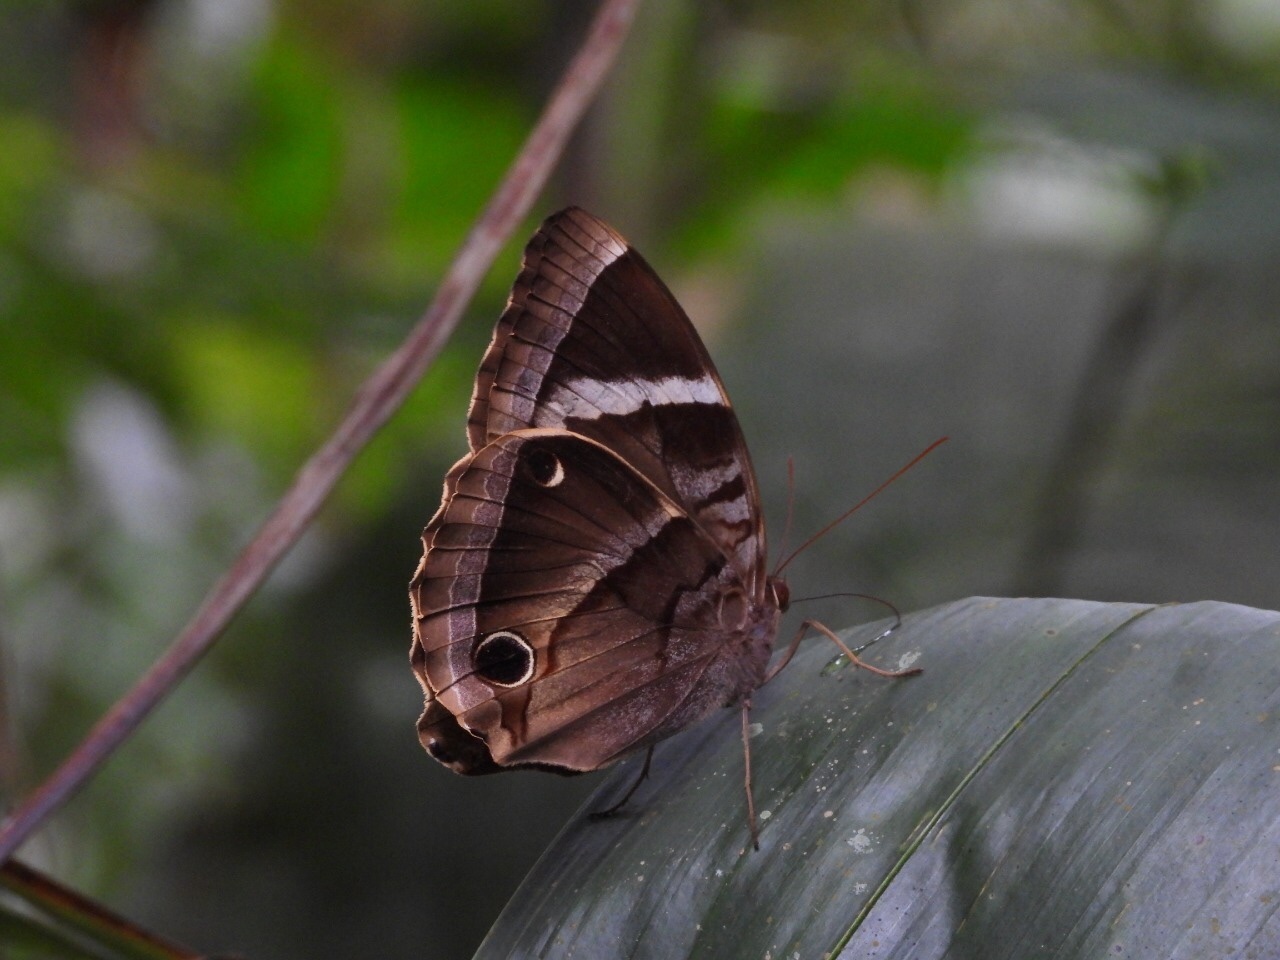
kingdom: Animalia
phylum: Arthropoda
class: Insecta
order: Lepidoptera
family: Nymphalidae
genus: Thaumantis
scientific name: Thaumantis odana
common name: Malayan jungle glory
